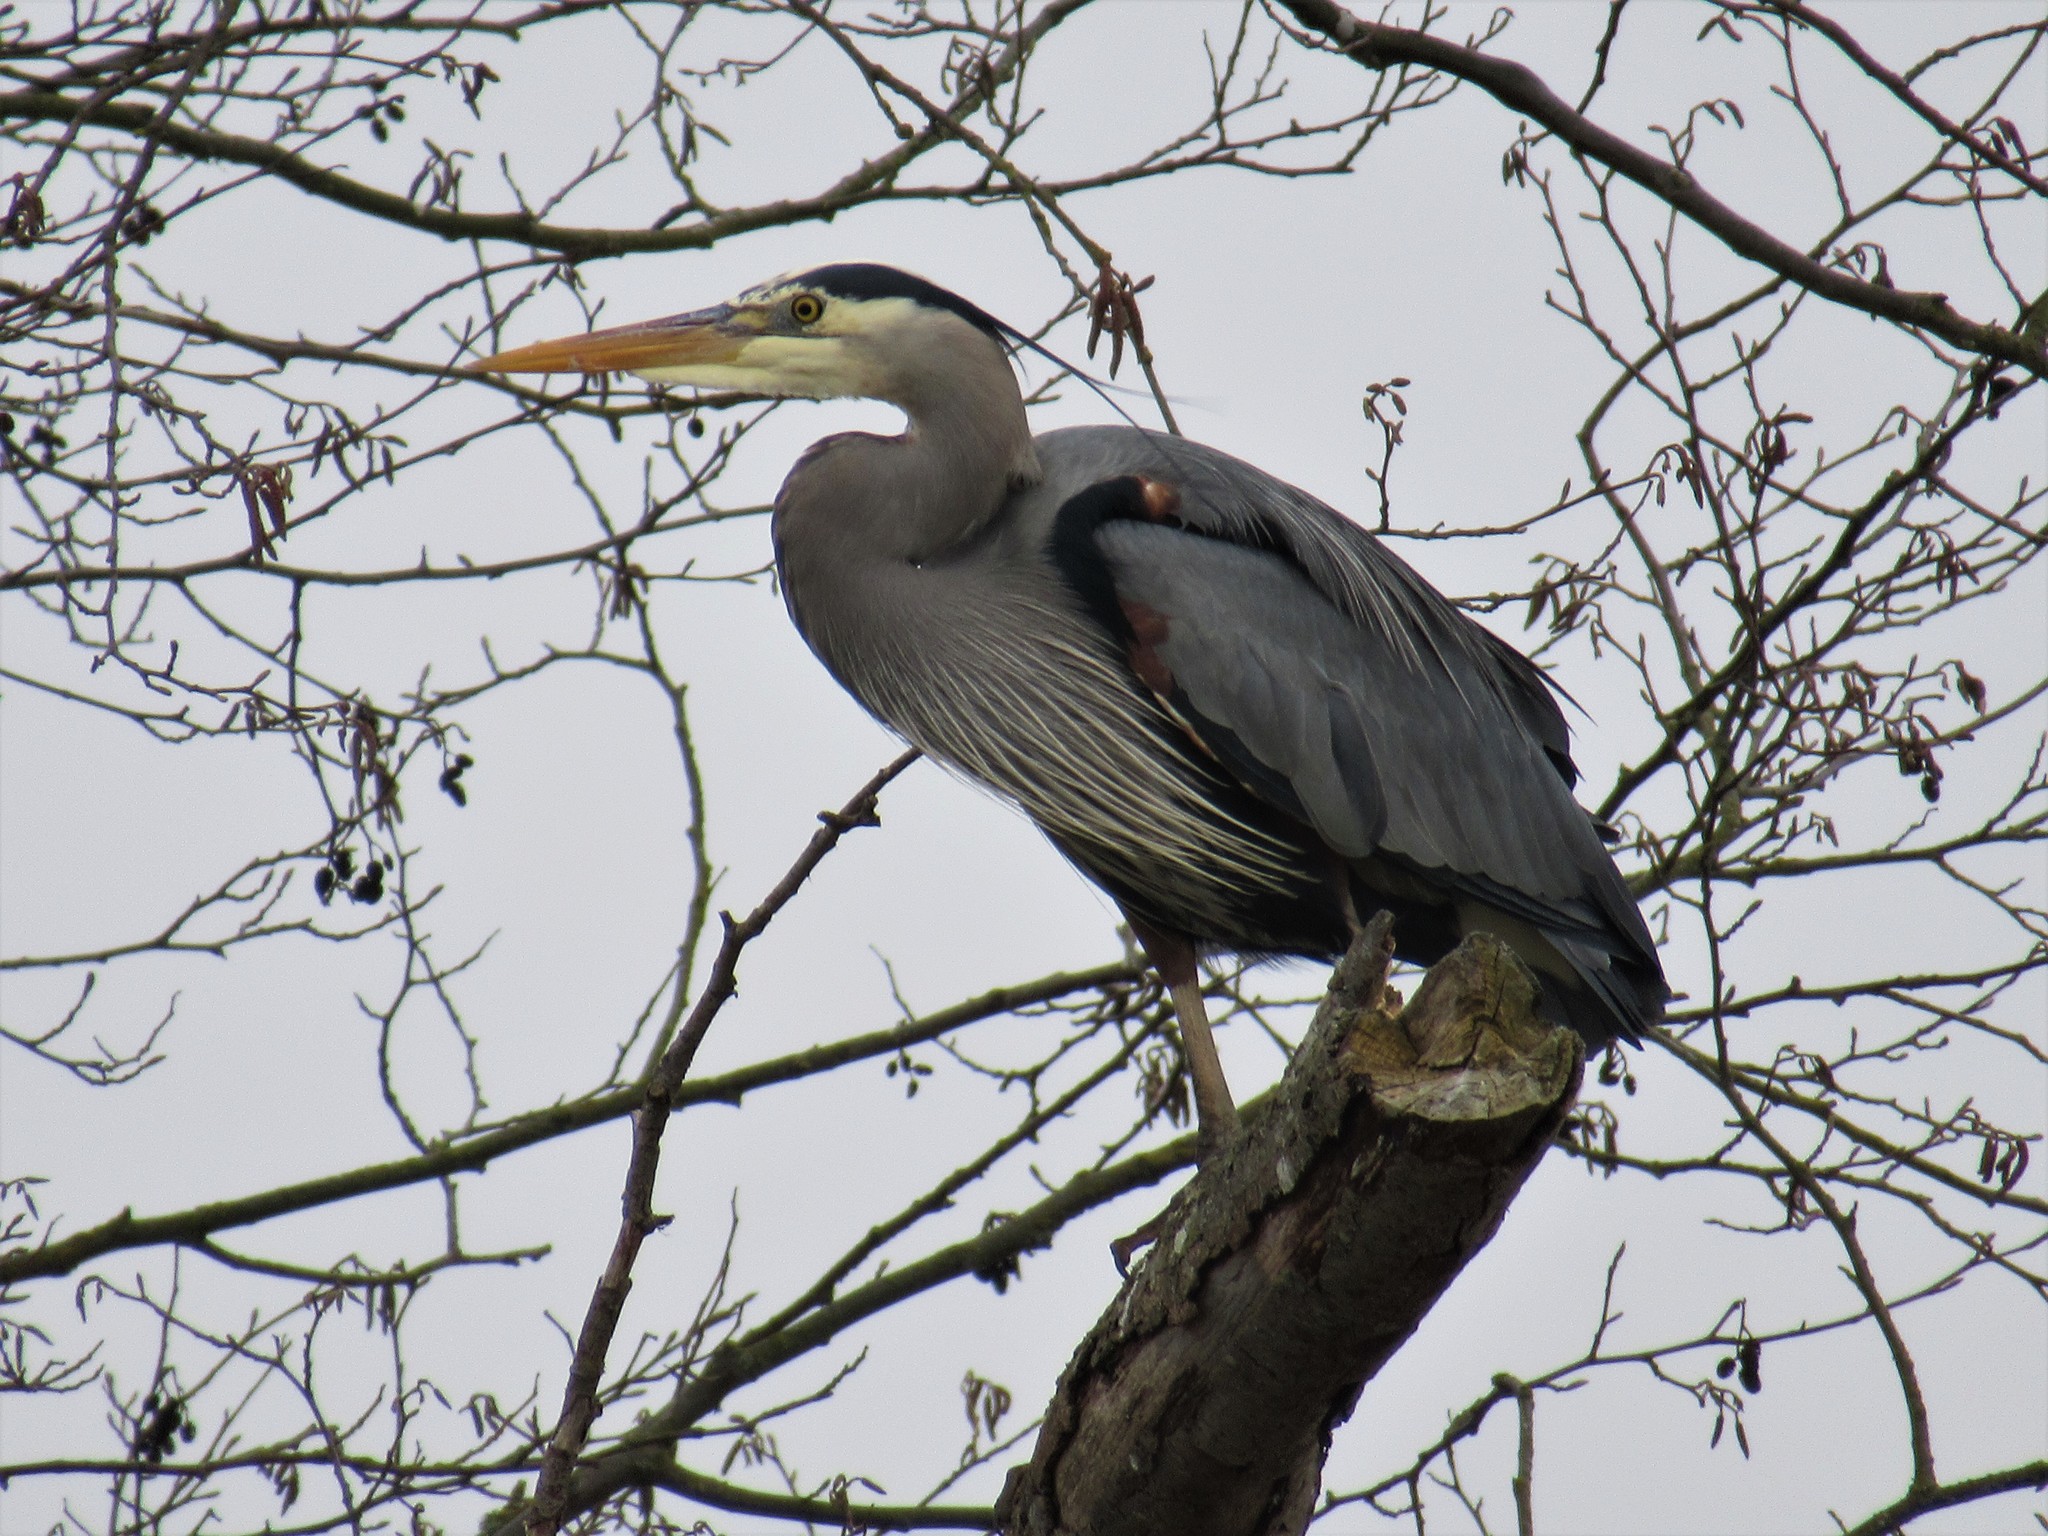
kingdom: Animalia
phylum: Chordata
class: Aves
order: Pelecaniformes
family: Ardeidae
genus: Ardea
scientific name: Ardea herodias
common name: Great blue heron
